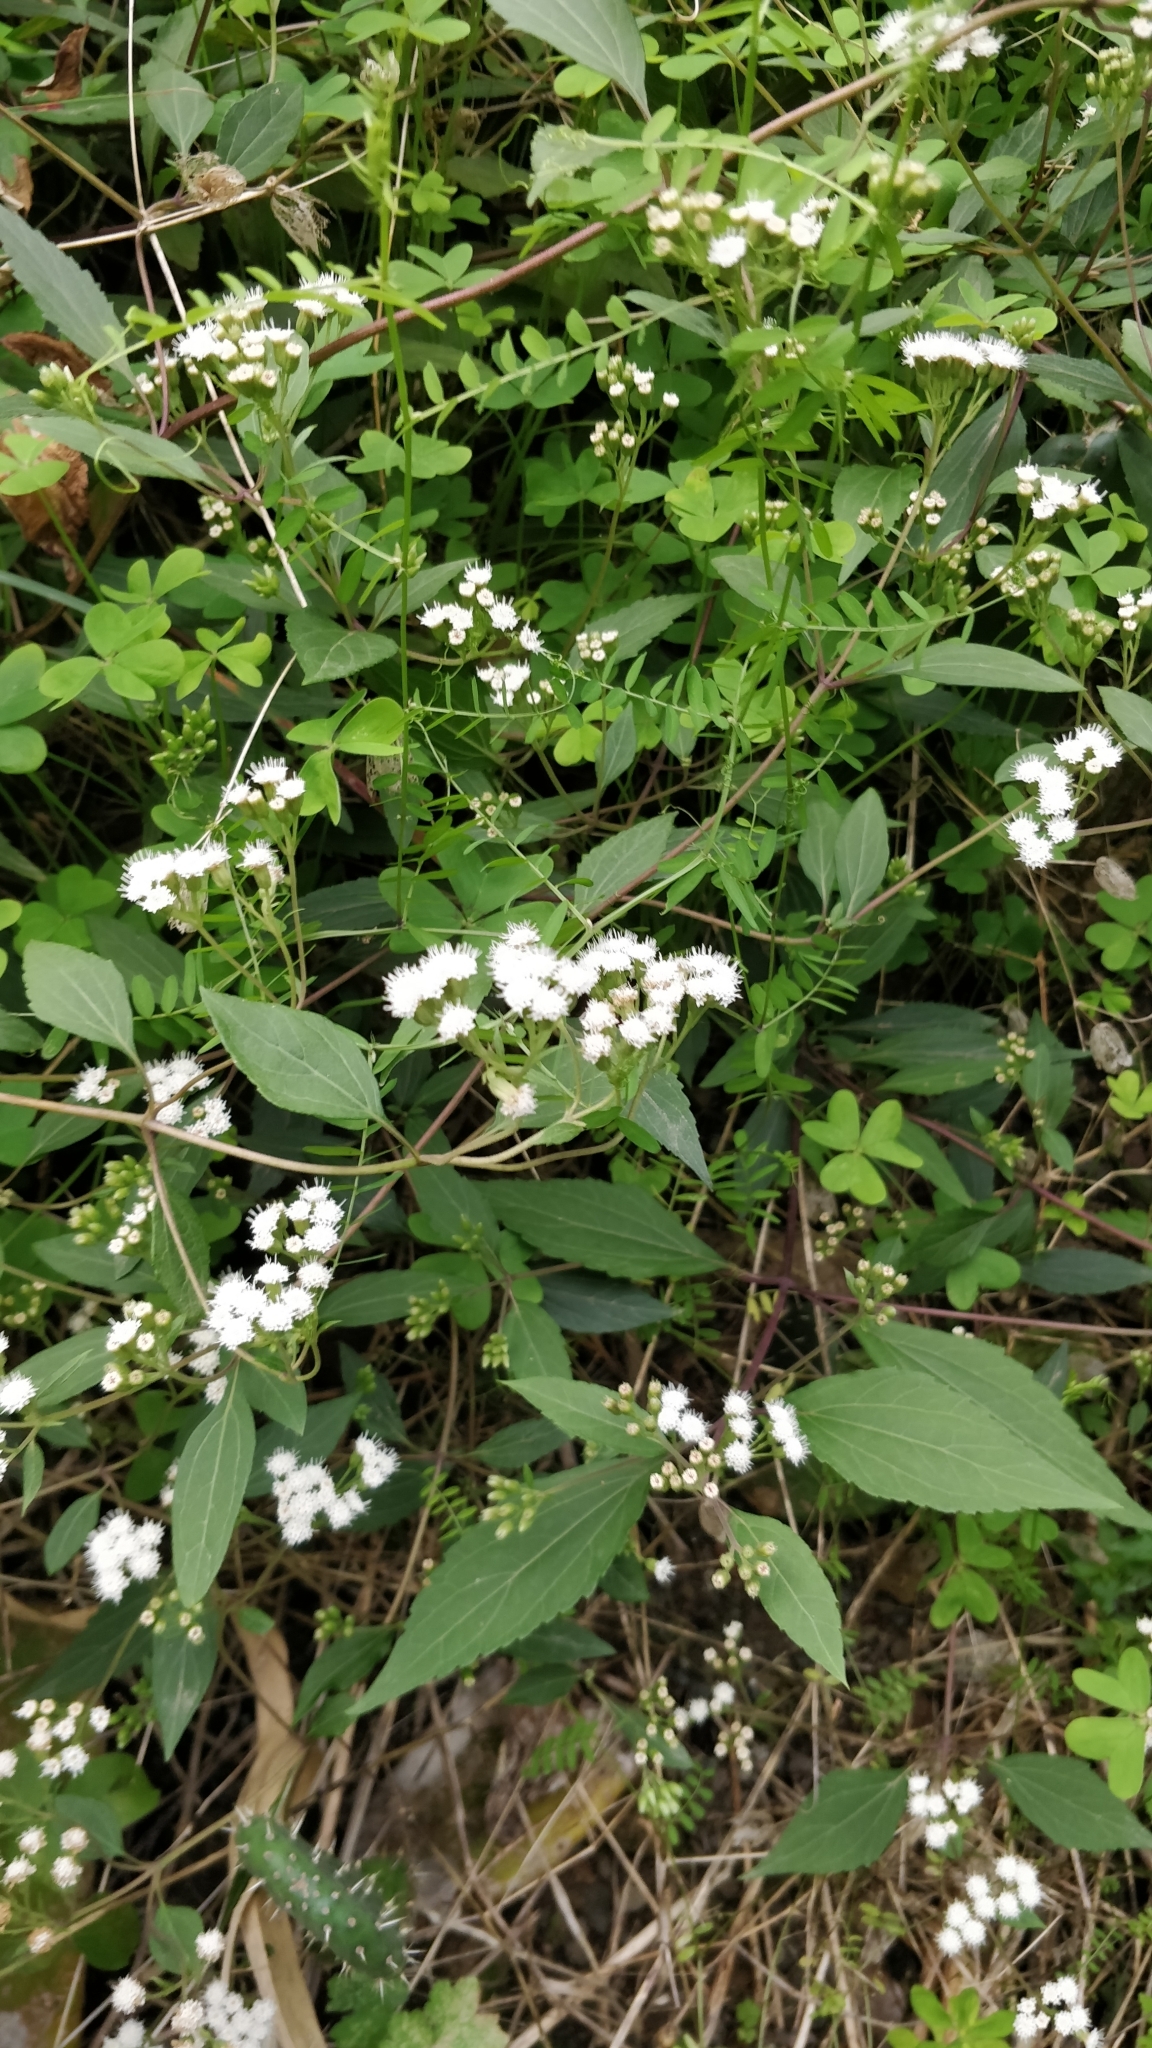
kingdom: Plantae
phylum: Tracheophyta
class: Magnoliopsida
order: Asterales
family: Asteraceae
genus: Ageratina
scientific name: Ageratina riparia
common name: Creeping croftonweed
